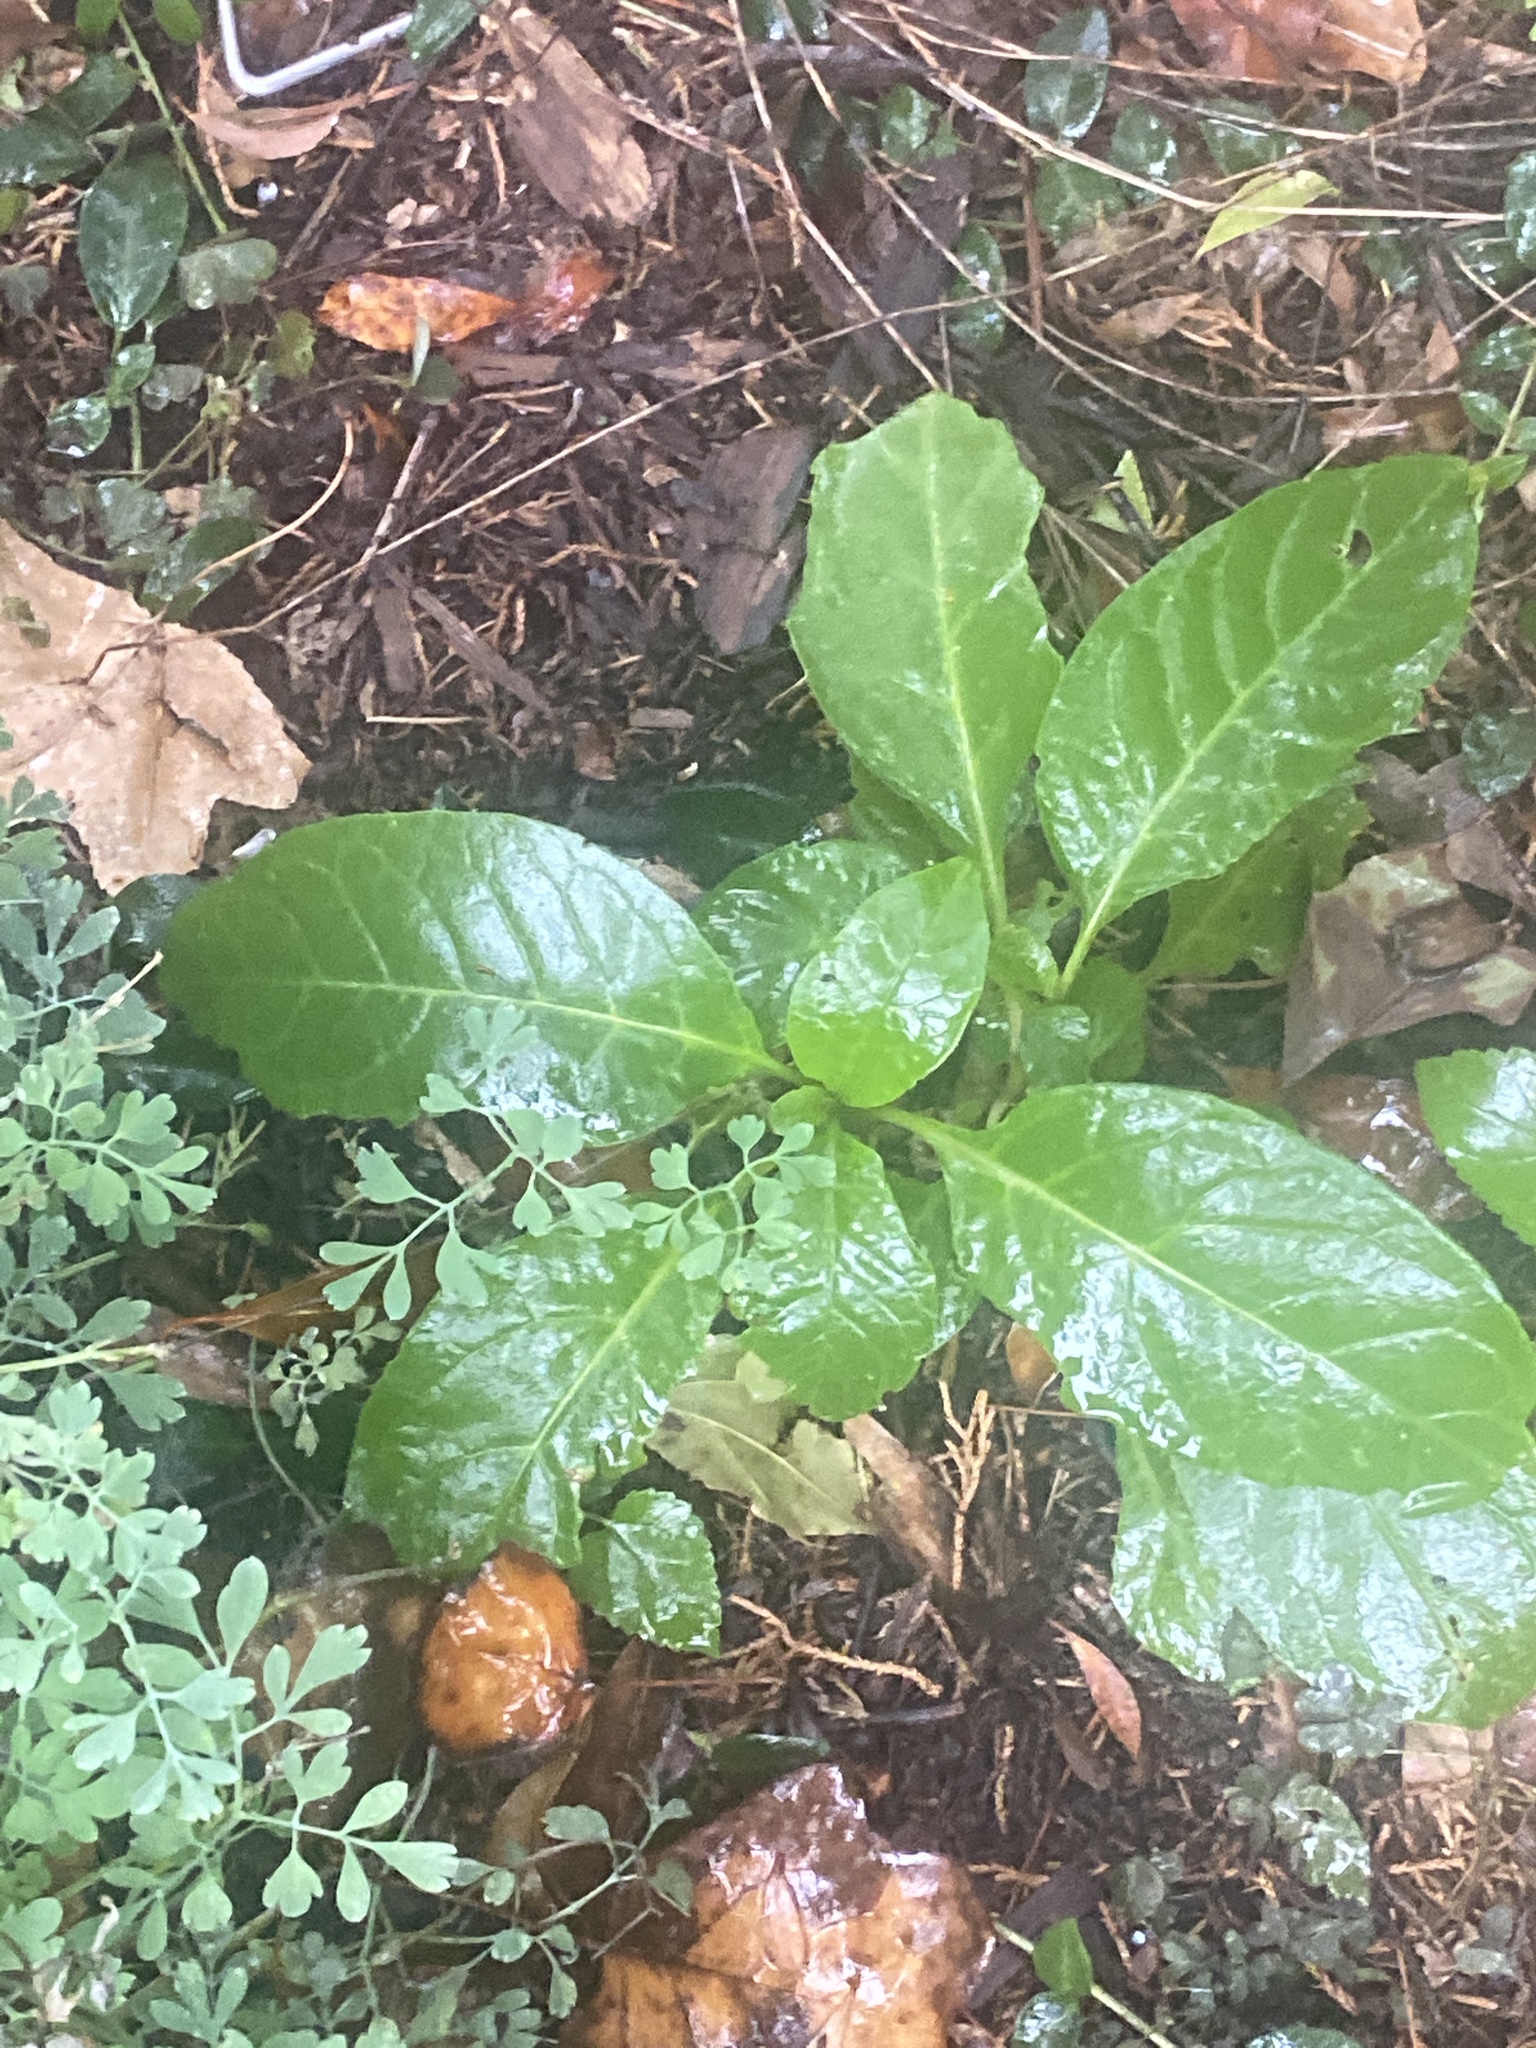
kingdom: Plantae
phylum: Tracheophyta
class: Magnoliopsida
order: Caryophyllales
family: Phytolaccaceae
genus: Phytolacca
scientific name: Phytolacca americana
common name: American pokeweed
